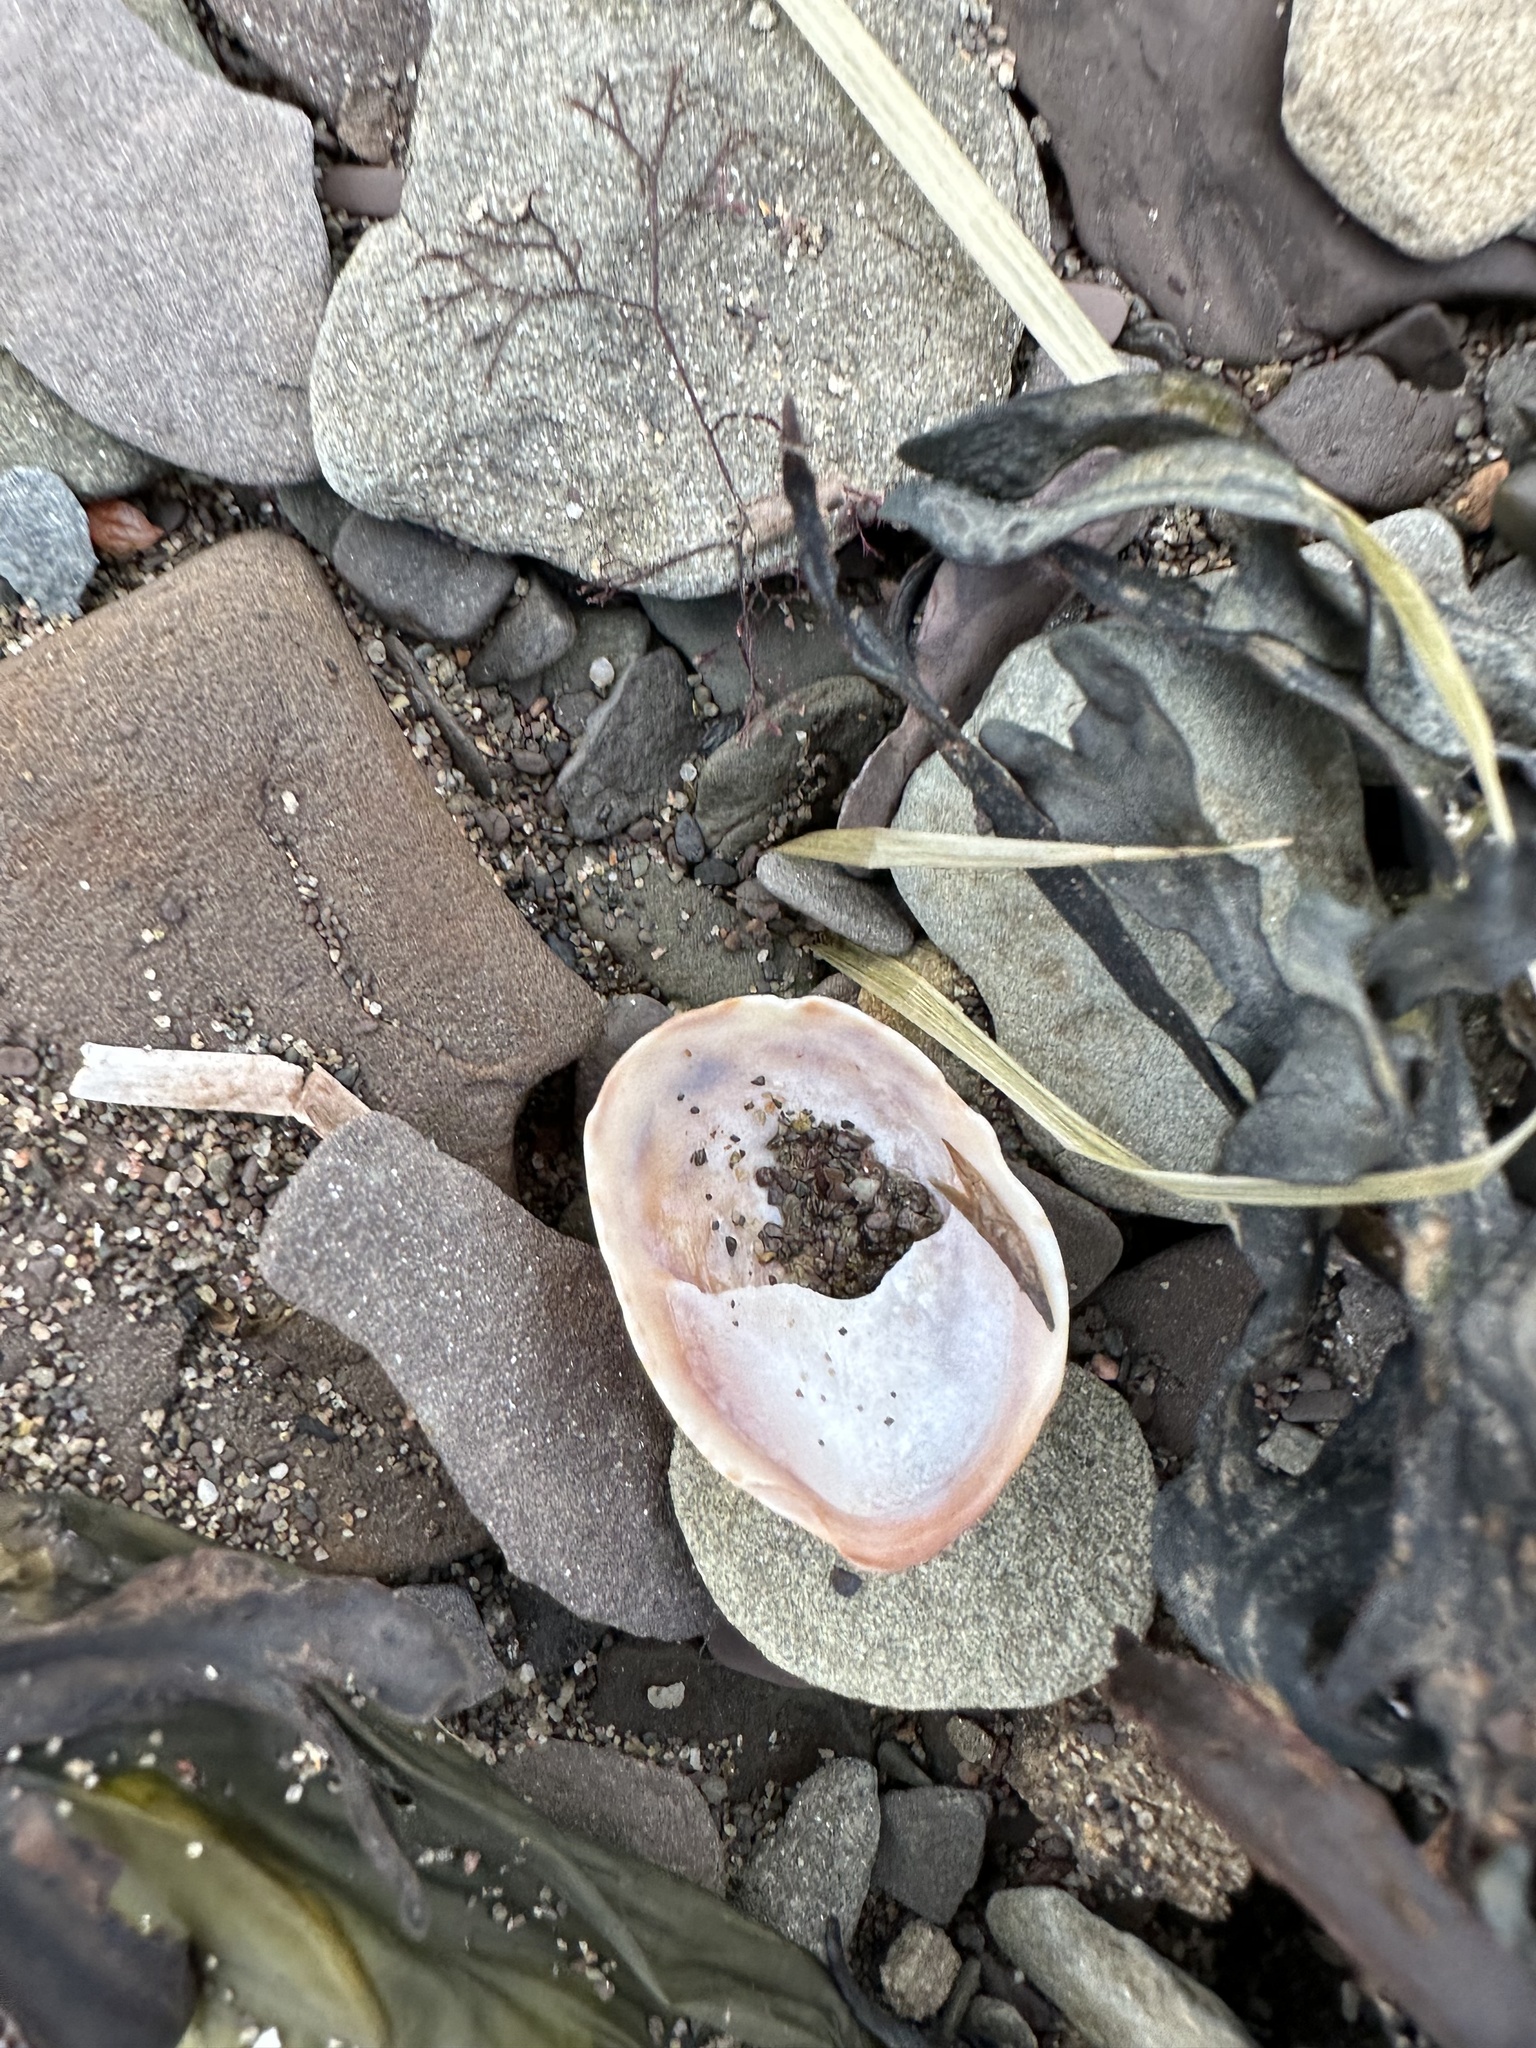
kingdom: Animalia
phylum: Mollusca
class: Gastropoda
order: Littorinimorpha
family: Calyptraeidae
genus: Crepidula
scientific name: Crepidula fornicata
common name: Slipper limpet
